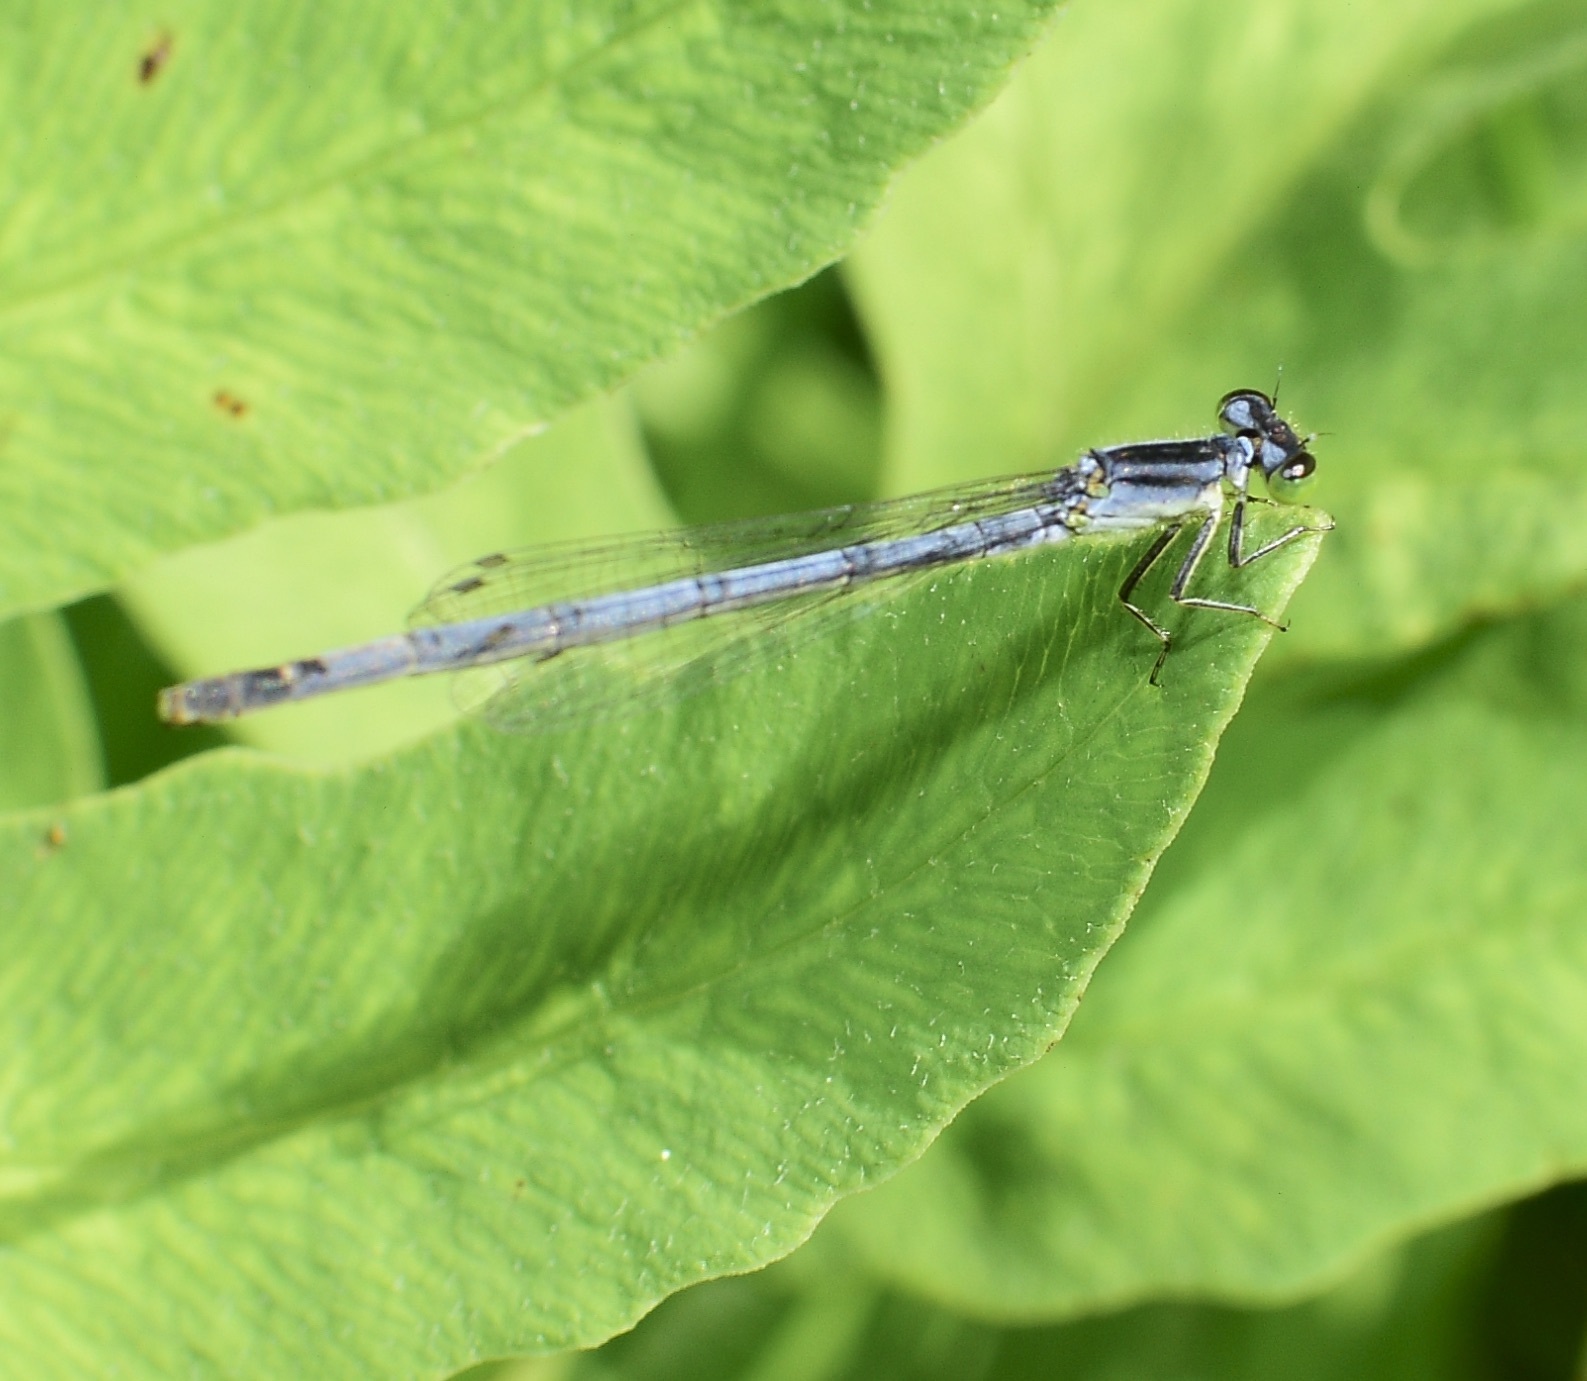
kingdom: Animalia
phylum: Arthropoda
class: Insecta
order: Odonata
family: Coenagrionidae
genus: Ischnura
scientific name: Ischnura verticalis
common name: Eastern forktail
